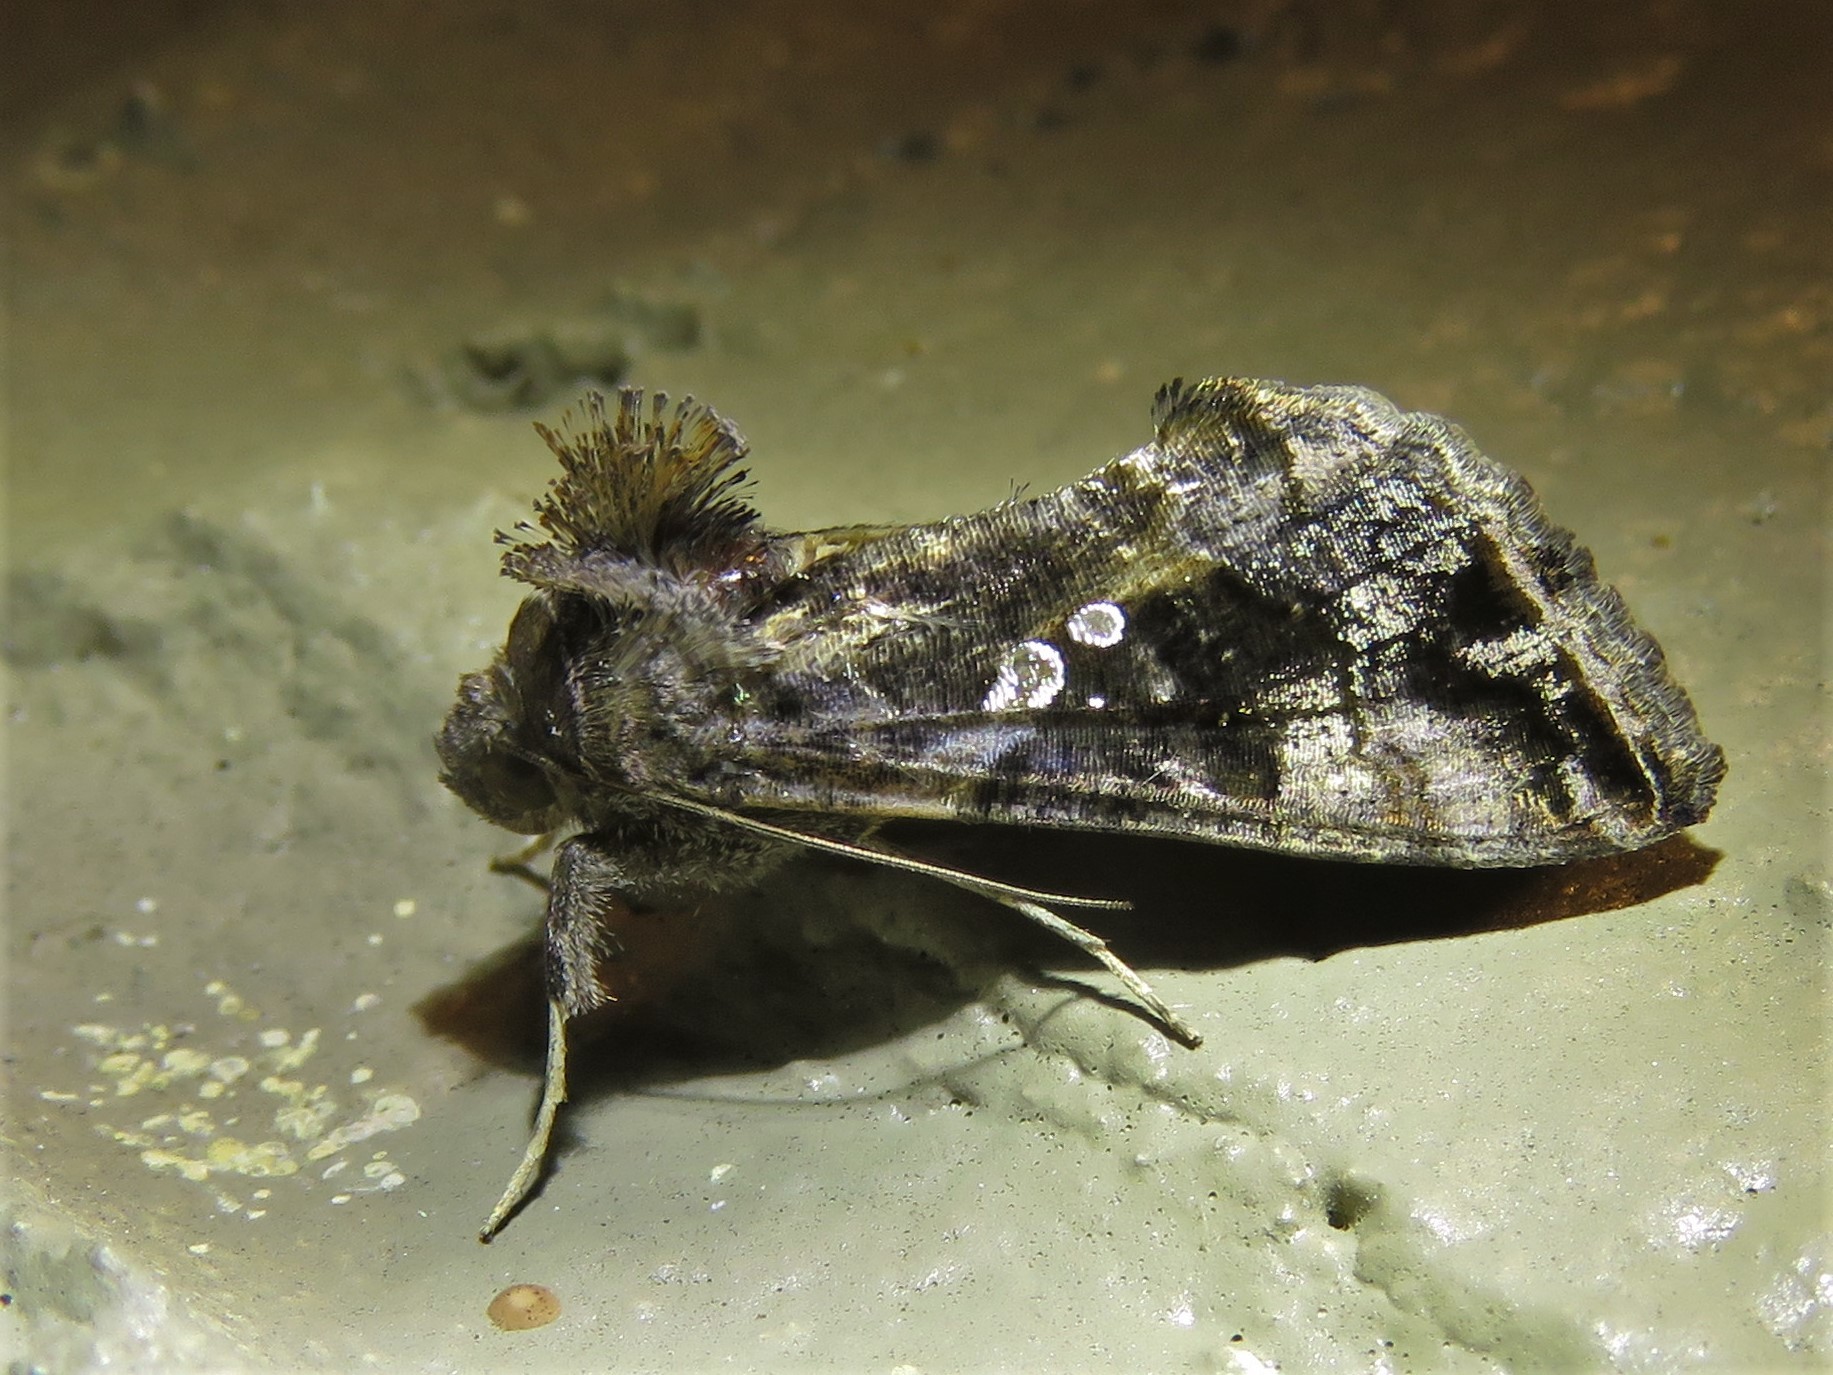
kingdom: Animalia
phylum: Arthropoda
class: Insecta
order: Lepidoptera
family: Noctuidae
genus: Chrysodeixis
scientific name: Chrysodeixis includens
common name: Cutworm moth
